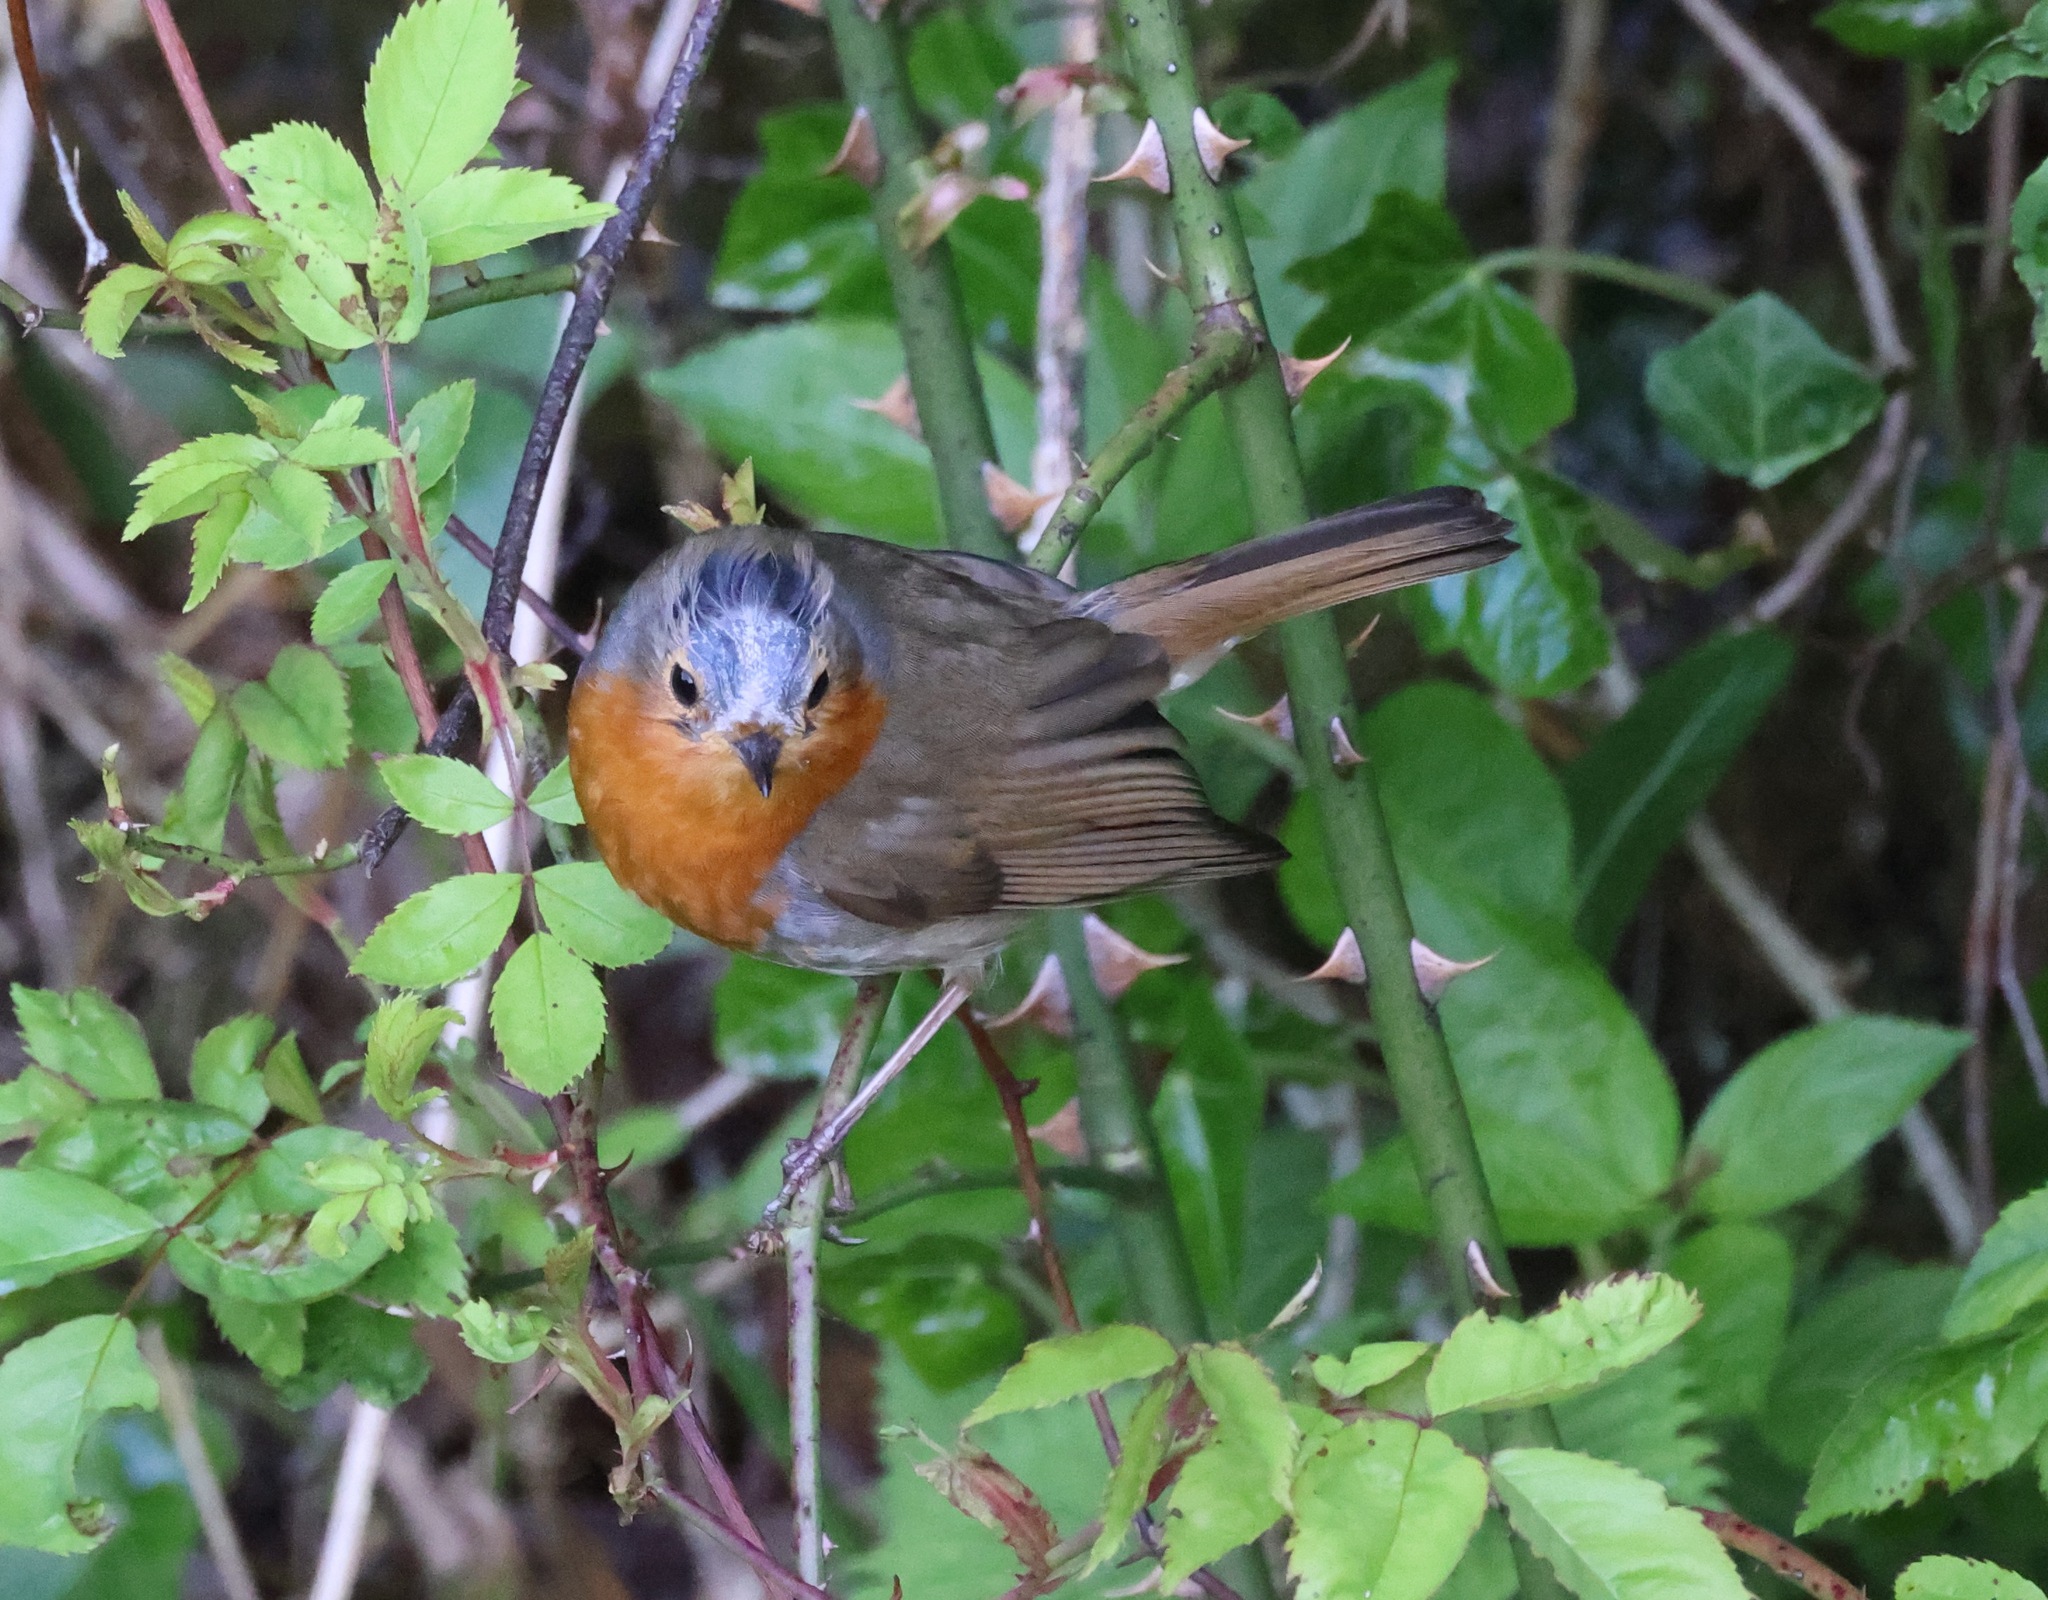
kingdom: Animalia
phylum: Chordata
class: Aves
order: Passeriformes
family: Muscicapidae
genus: Erithacus
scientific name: Erithacus rubecula
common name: European robin
